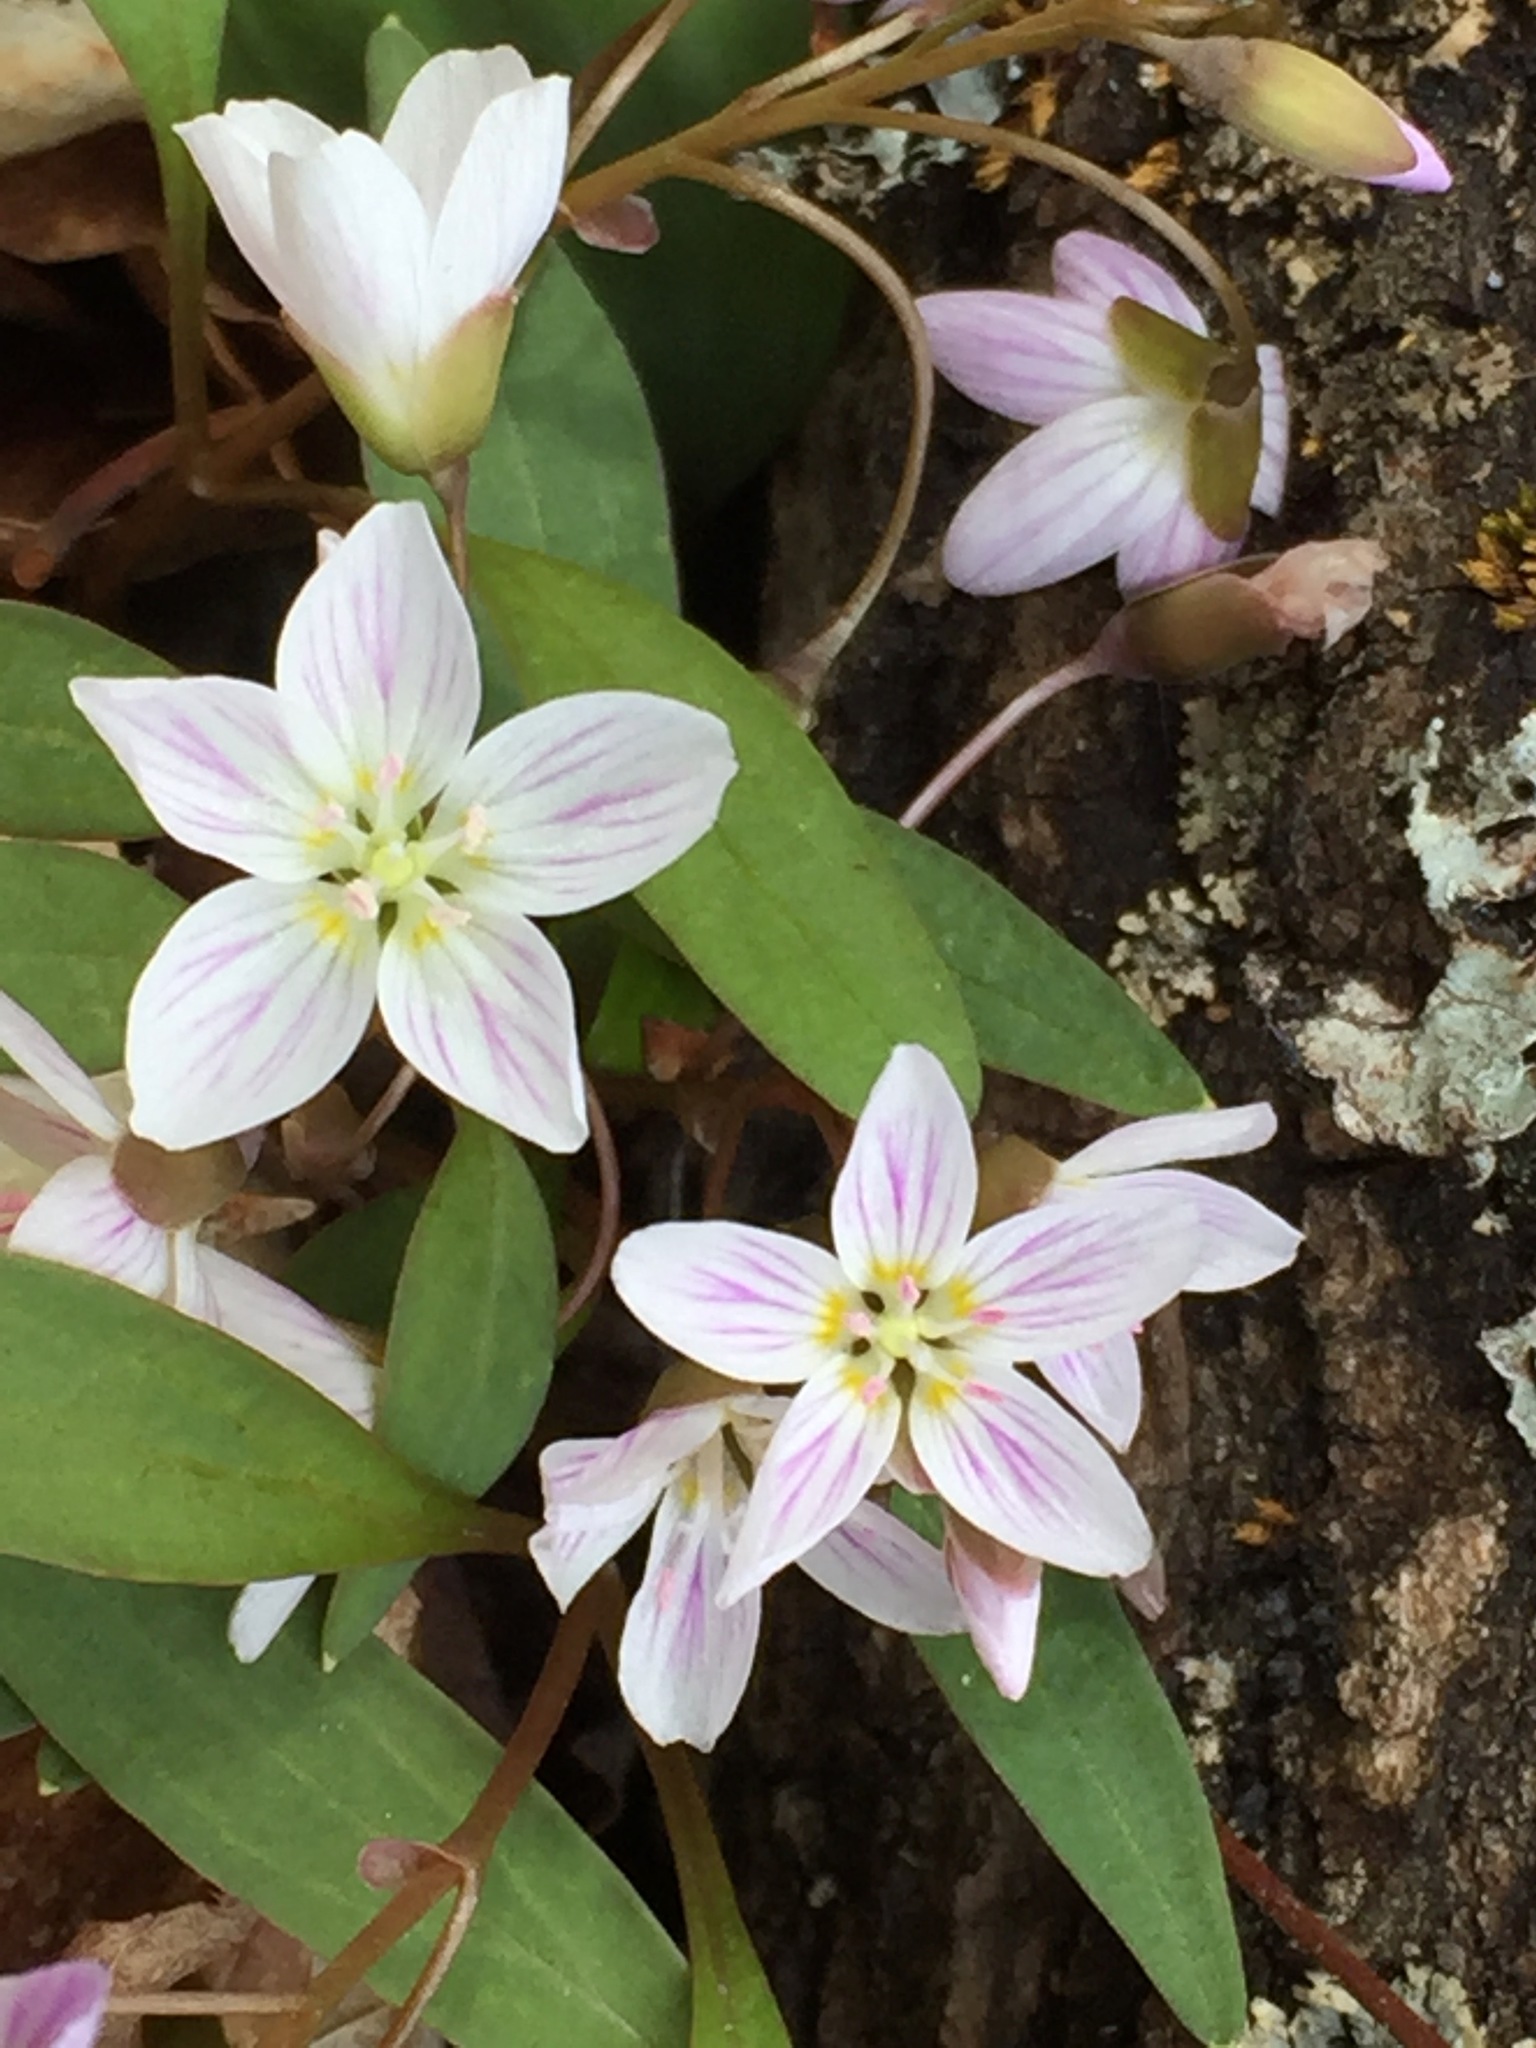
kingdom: Plantae
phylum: Tracheophyta
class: Magnoliopsida
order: Caryophyllales
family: Montiaceae
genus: Claytonia
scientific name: Claytonia caroliniana
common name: Carolina spring beauty
